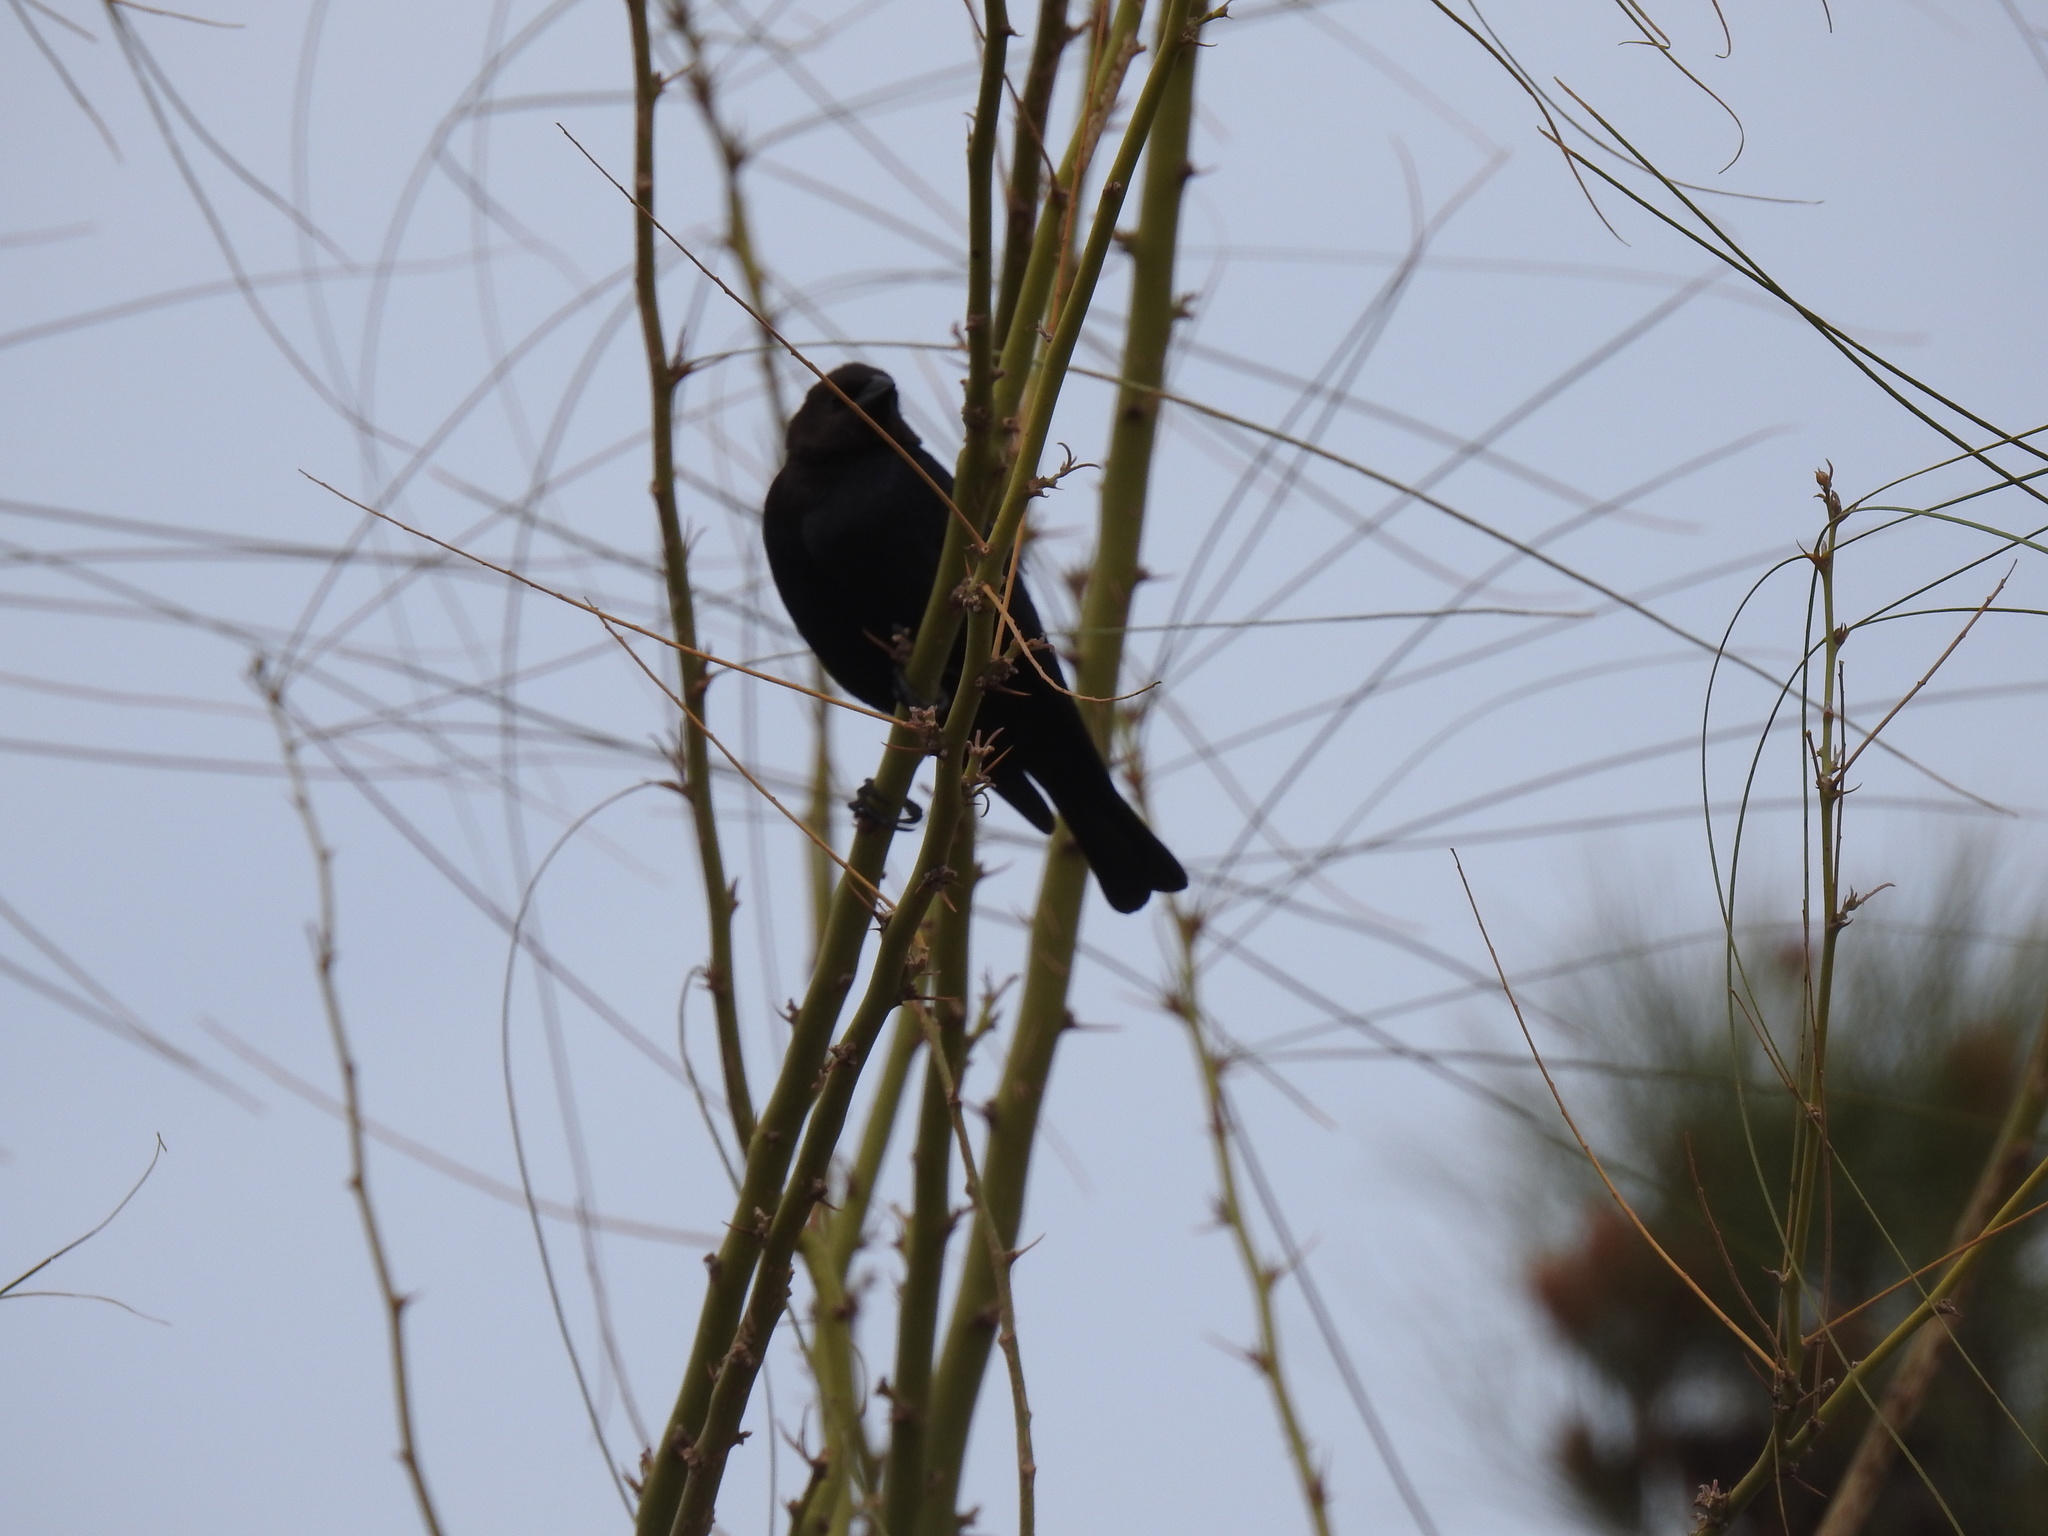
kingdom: Animalia
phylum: Chordata
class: Aves
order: Passeriformes
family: Icteridae
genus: Molothrus
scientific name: Molothrus ater
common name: Brown-headed cowbird
